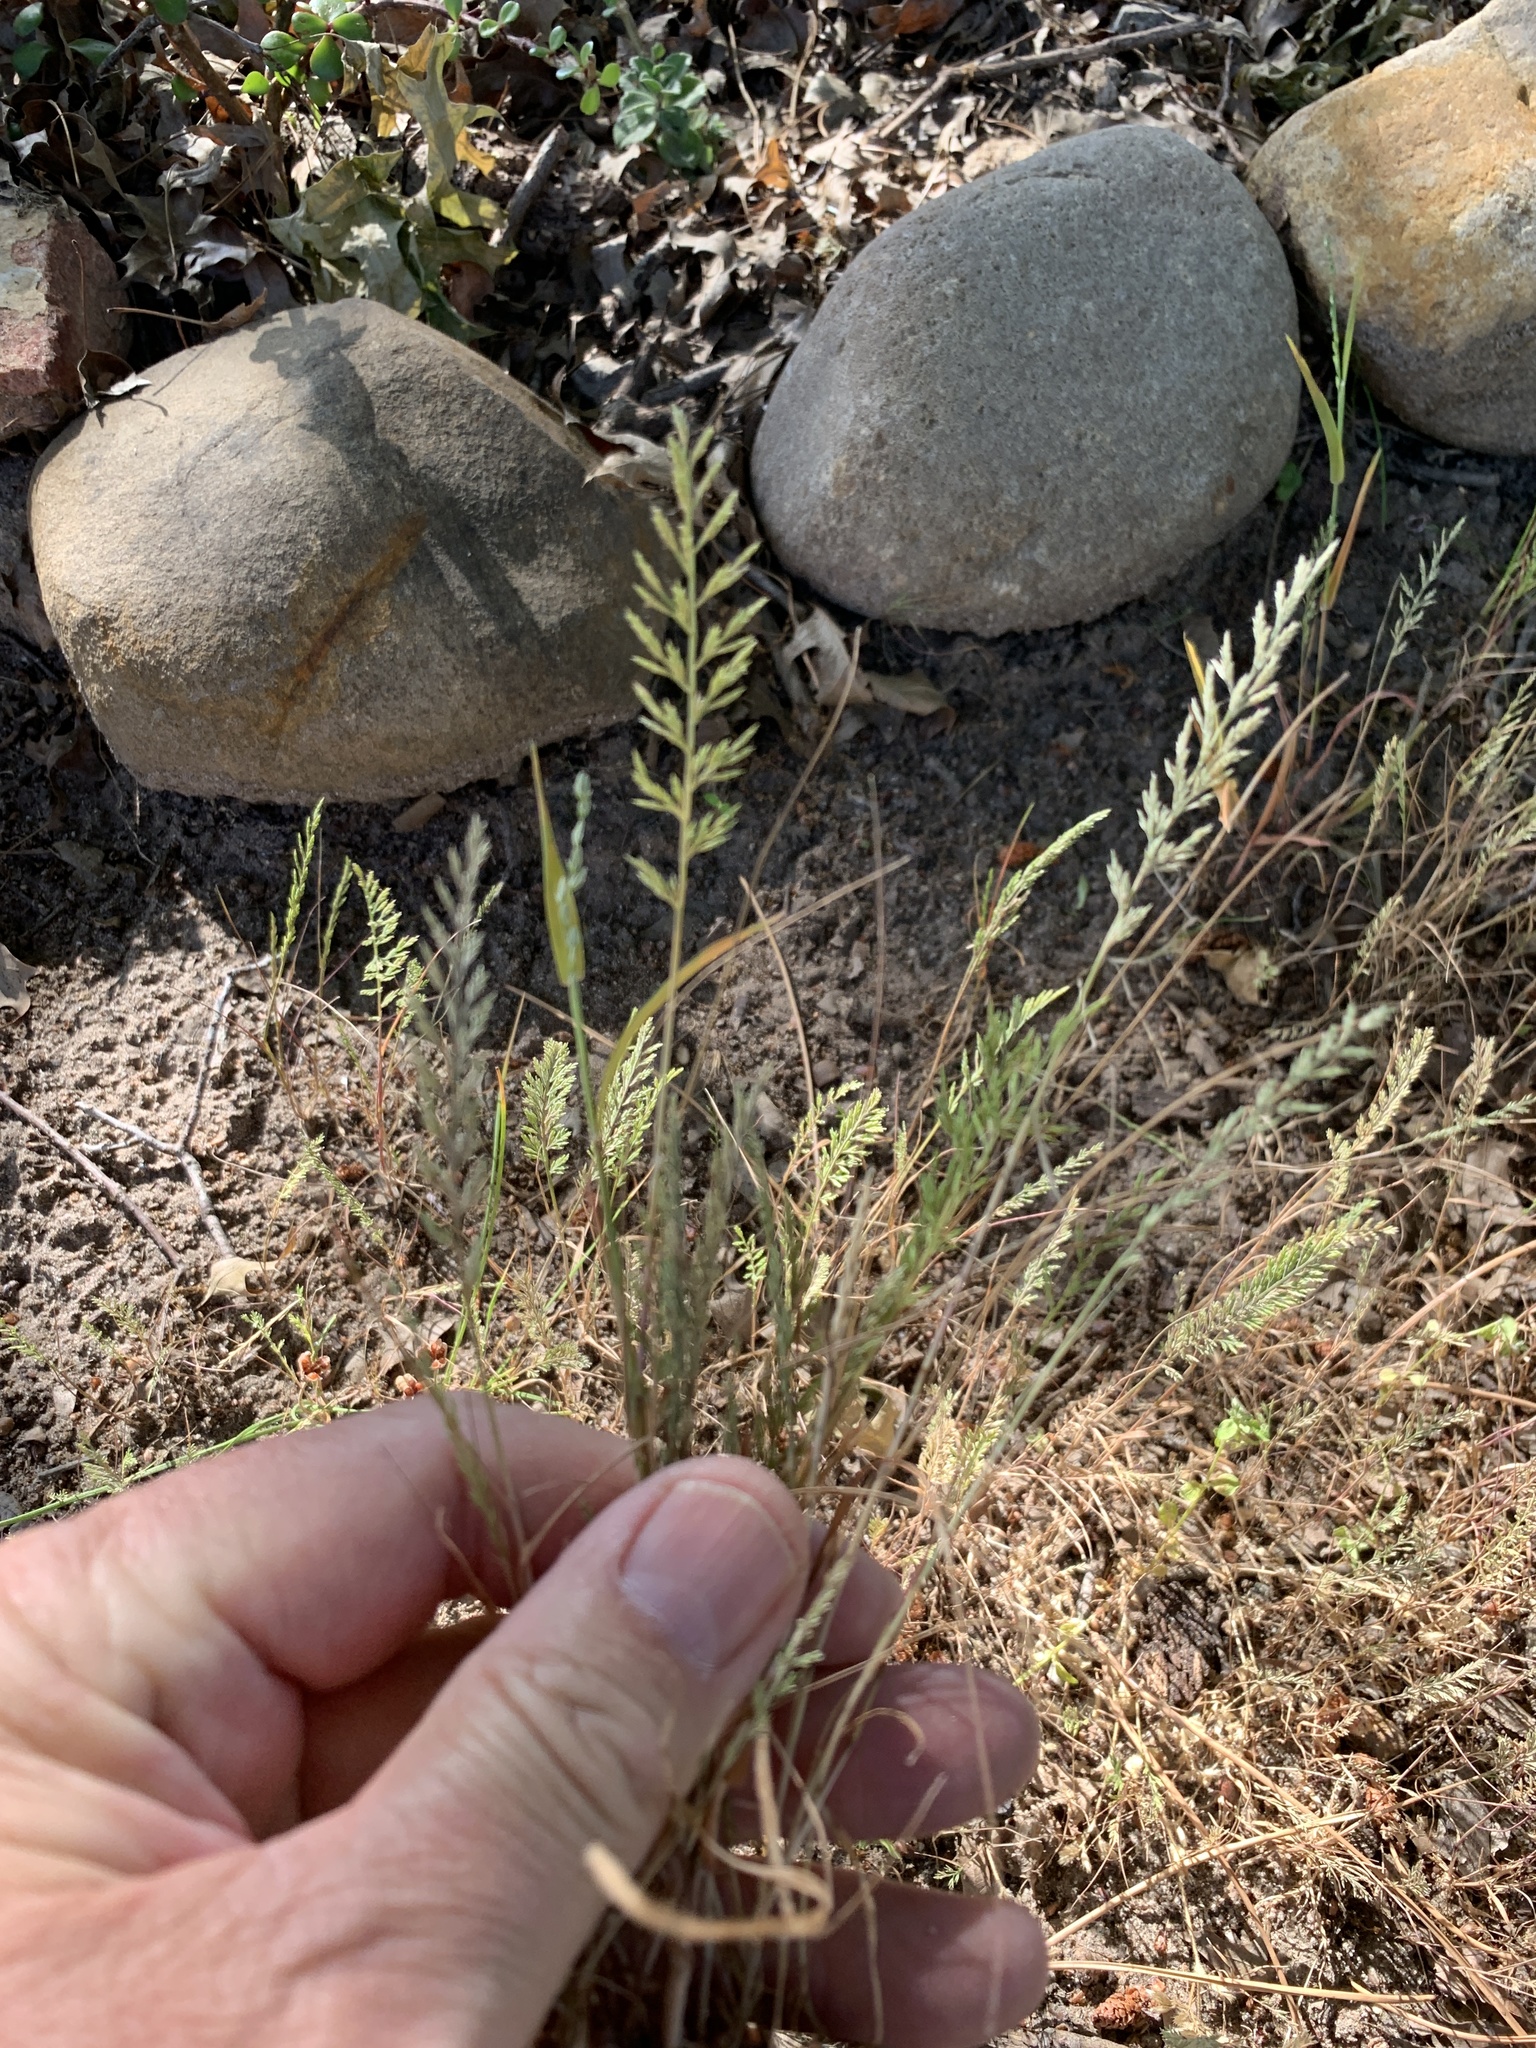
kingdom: Plantae
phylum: Tracheophyta
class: Liliopsida
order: Poales
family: Poaceae
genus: Catapodium
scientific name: Catapodium rigidum
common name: Fern-grass
